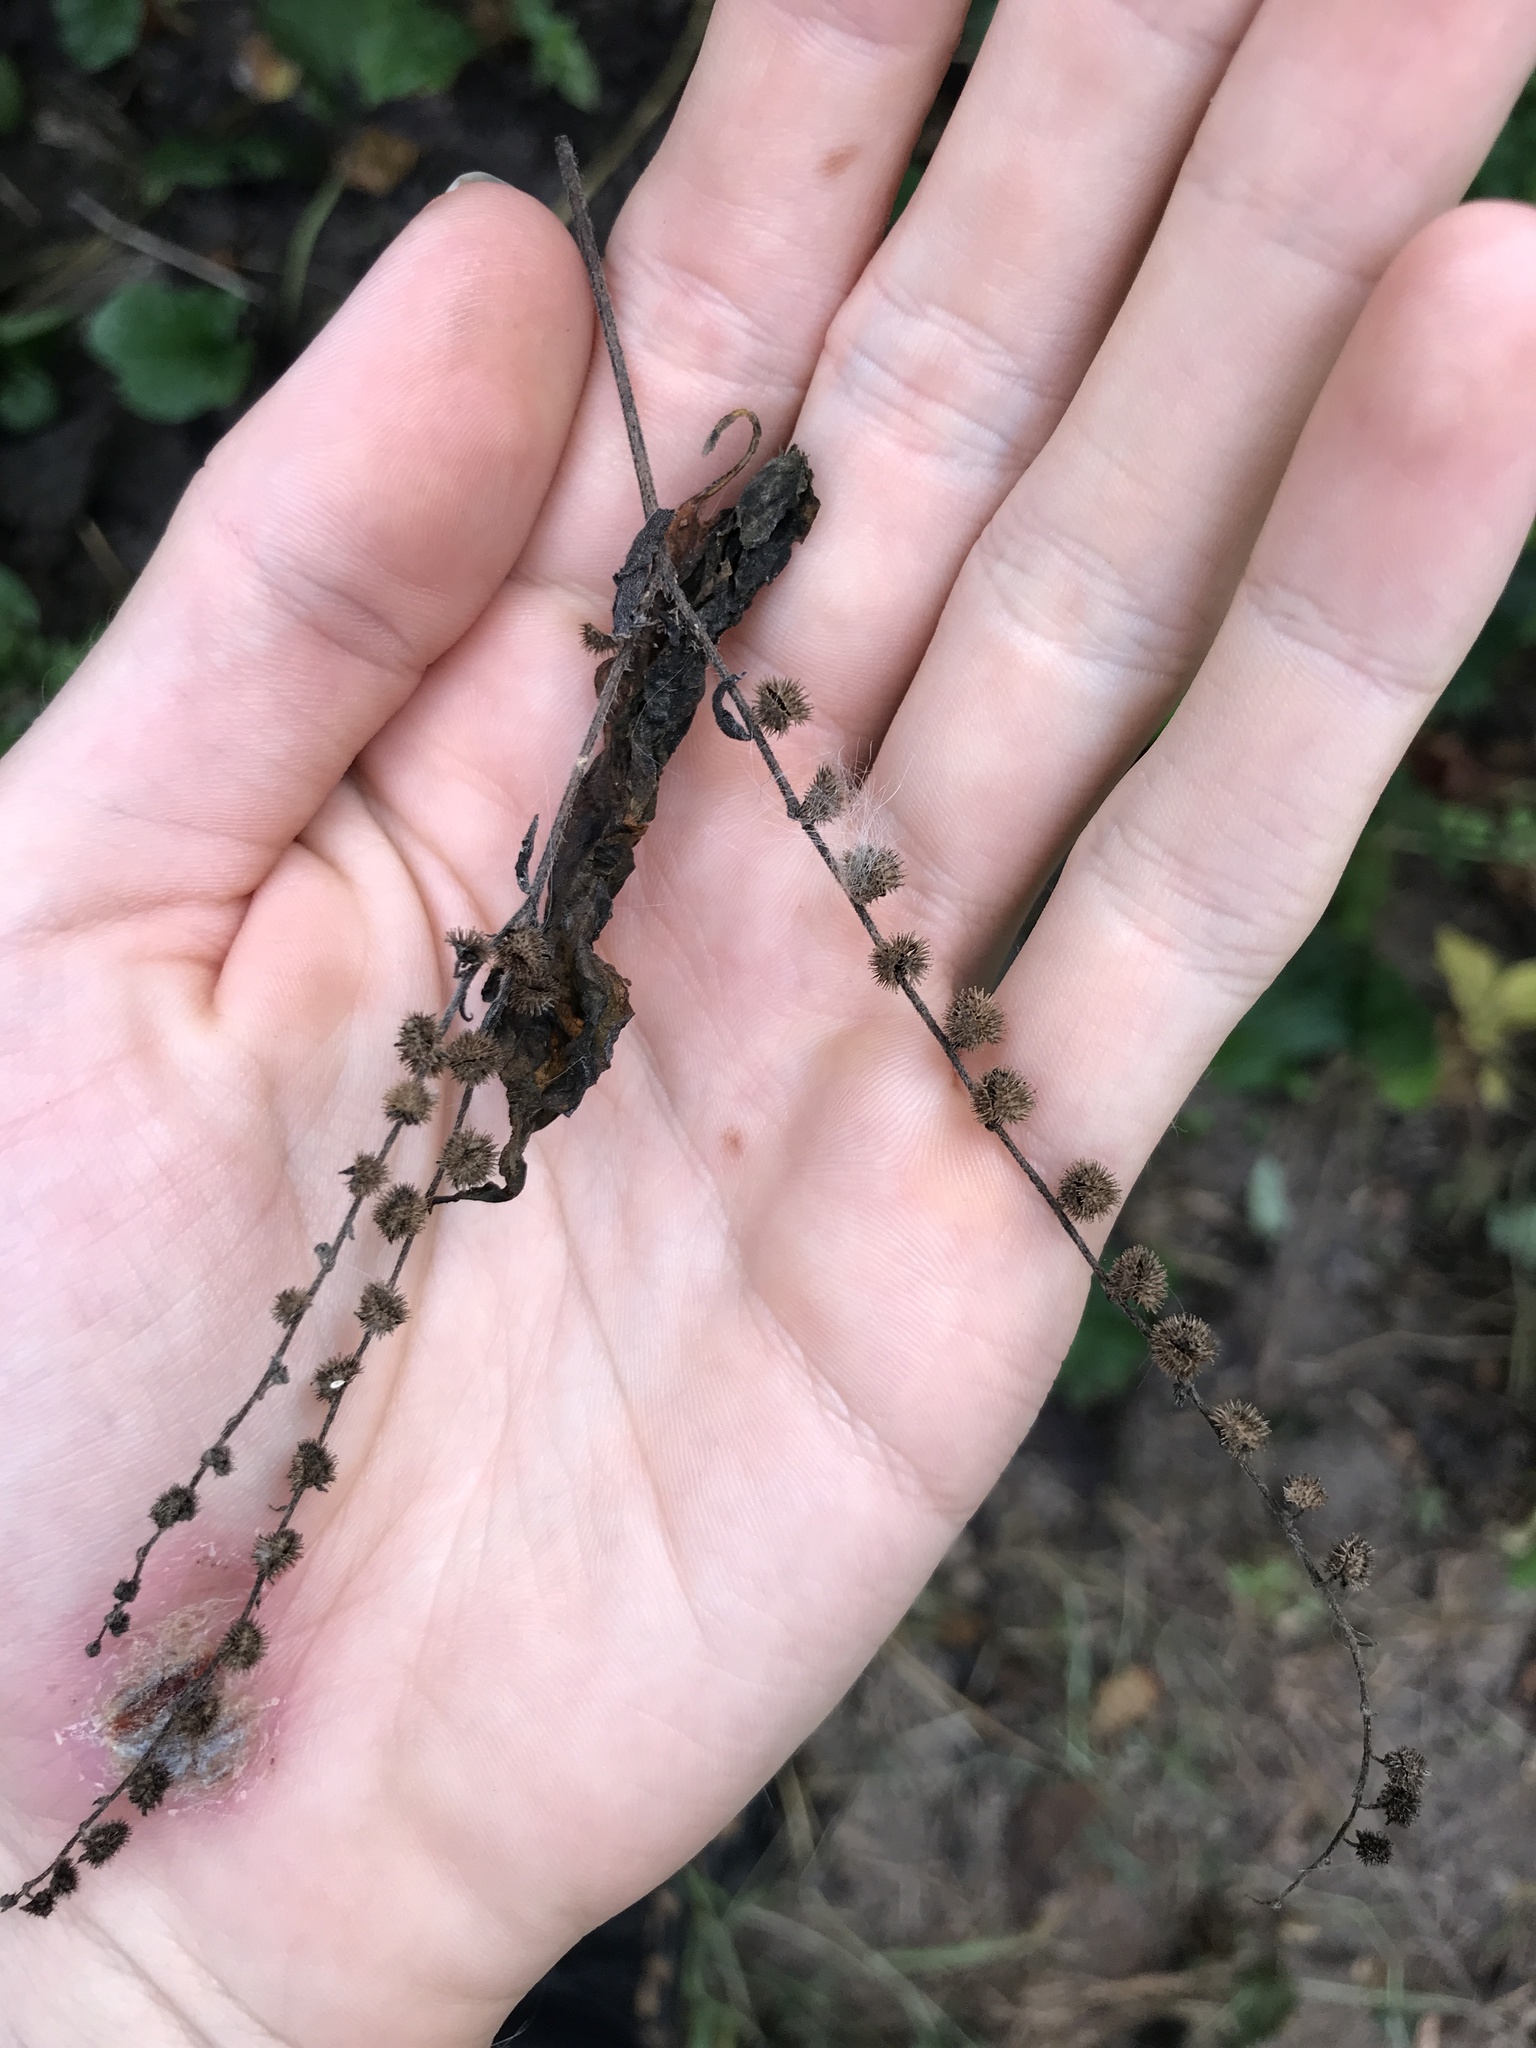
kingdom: Plantae
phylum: Tracheophyta
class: Magnoliopsida
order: Boraginales
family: Boraginaceae
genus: Hackelia
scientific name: Hackelia virginiana
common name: Beggar's-lice
